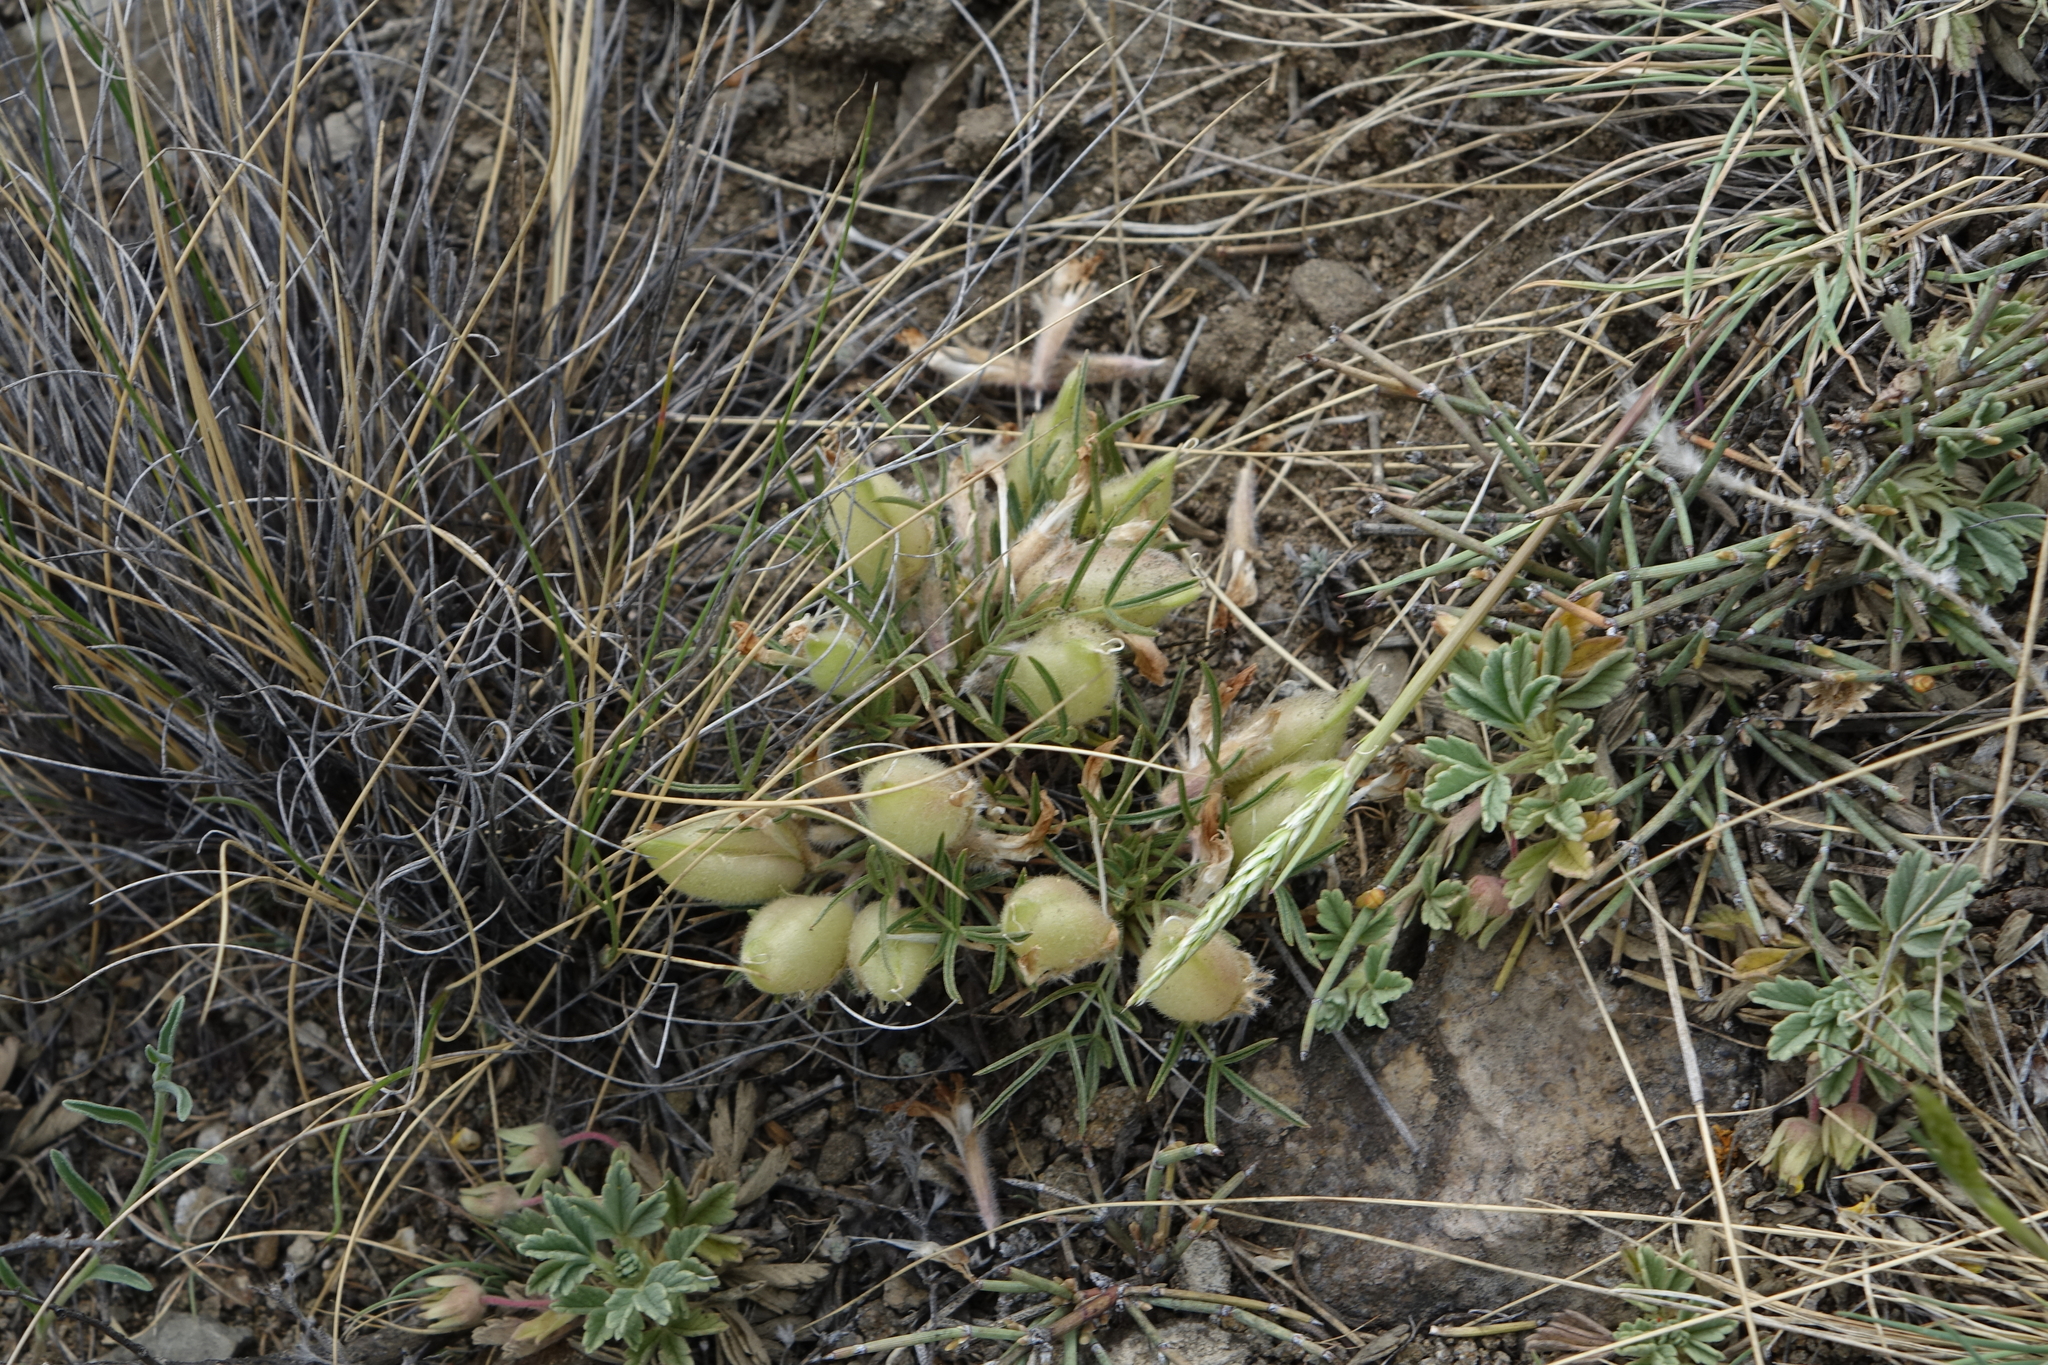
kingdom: Plantae
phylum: Tracheophyta
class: Magnoliopsida
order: Fabales
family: Fabaceae
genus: Oxytropis
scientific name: Oxytropis sobolevskajae
